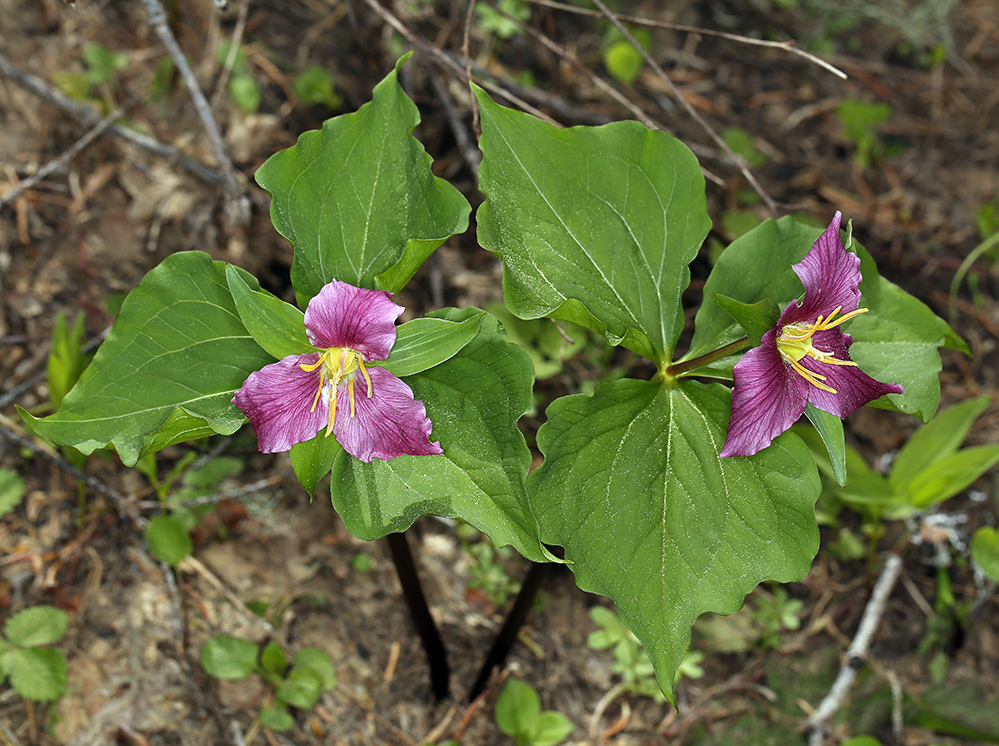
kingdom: Plantae
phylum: Tracheophyta
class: Liliopsida
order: Liliales
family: Melanthiaceae
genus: Trillium
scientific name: Trillium ovatum
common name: Pacific trillium
